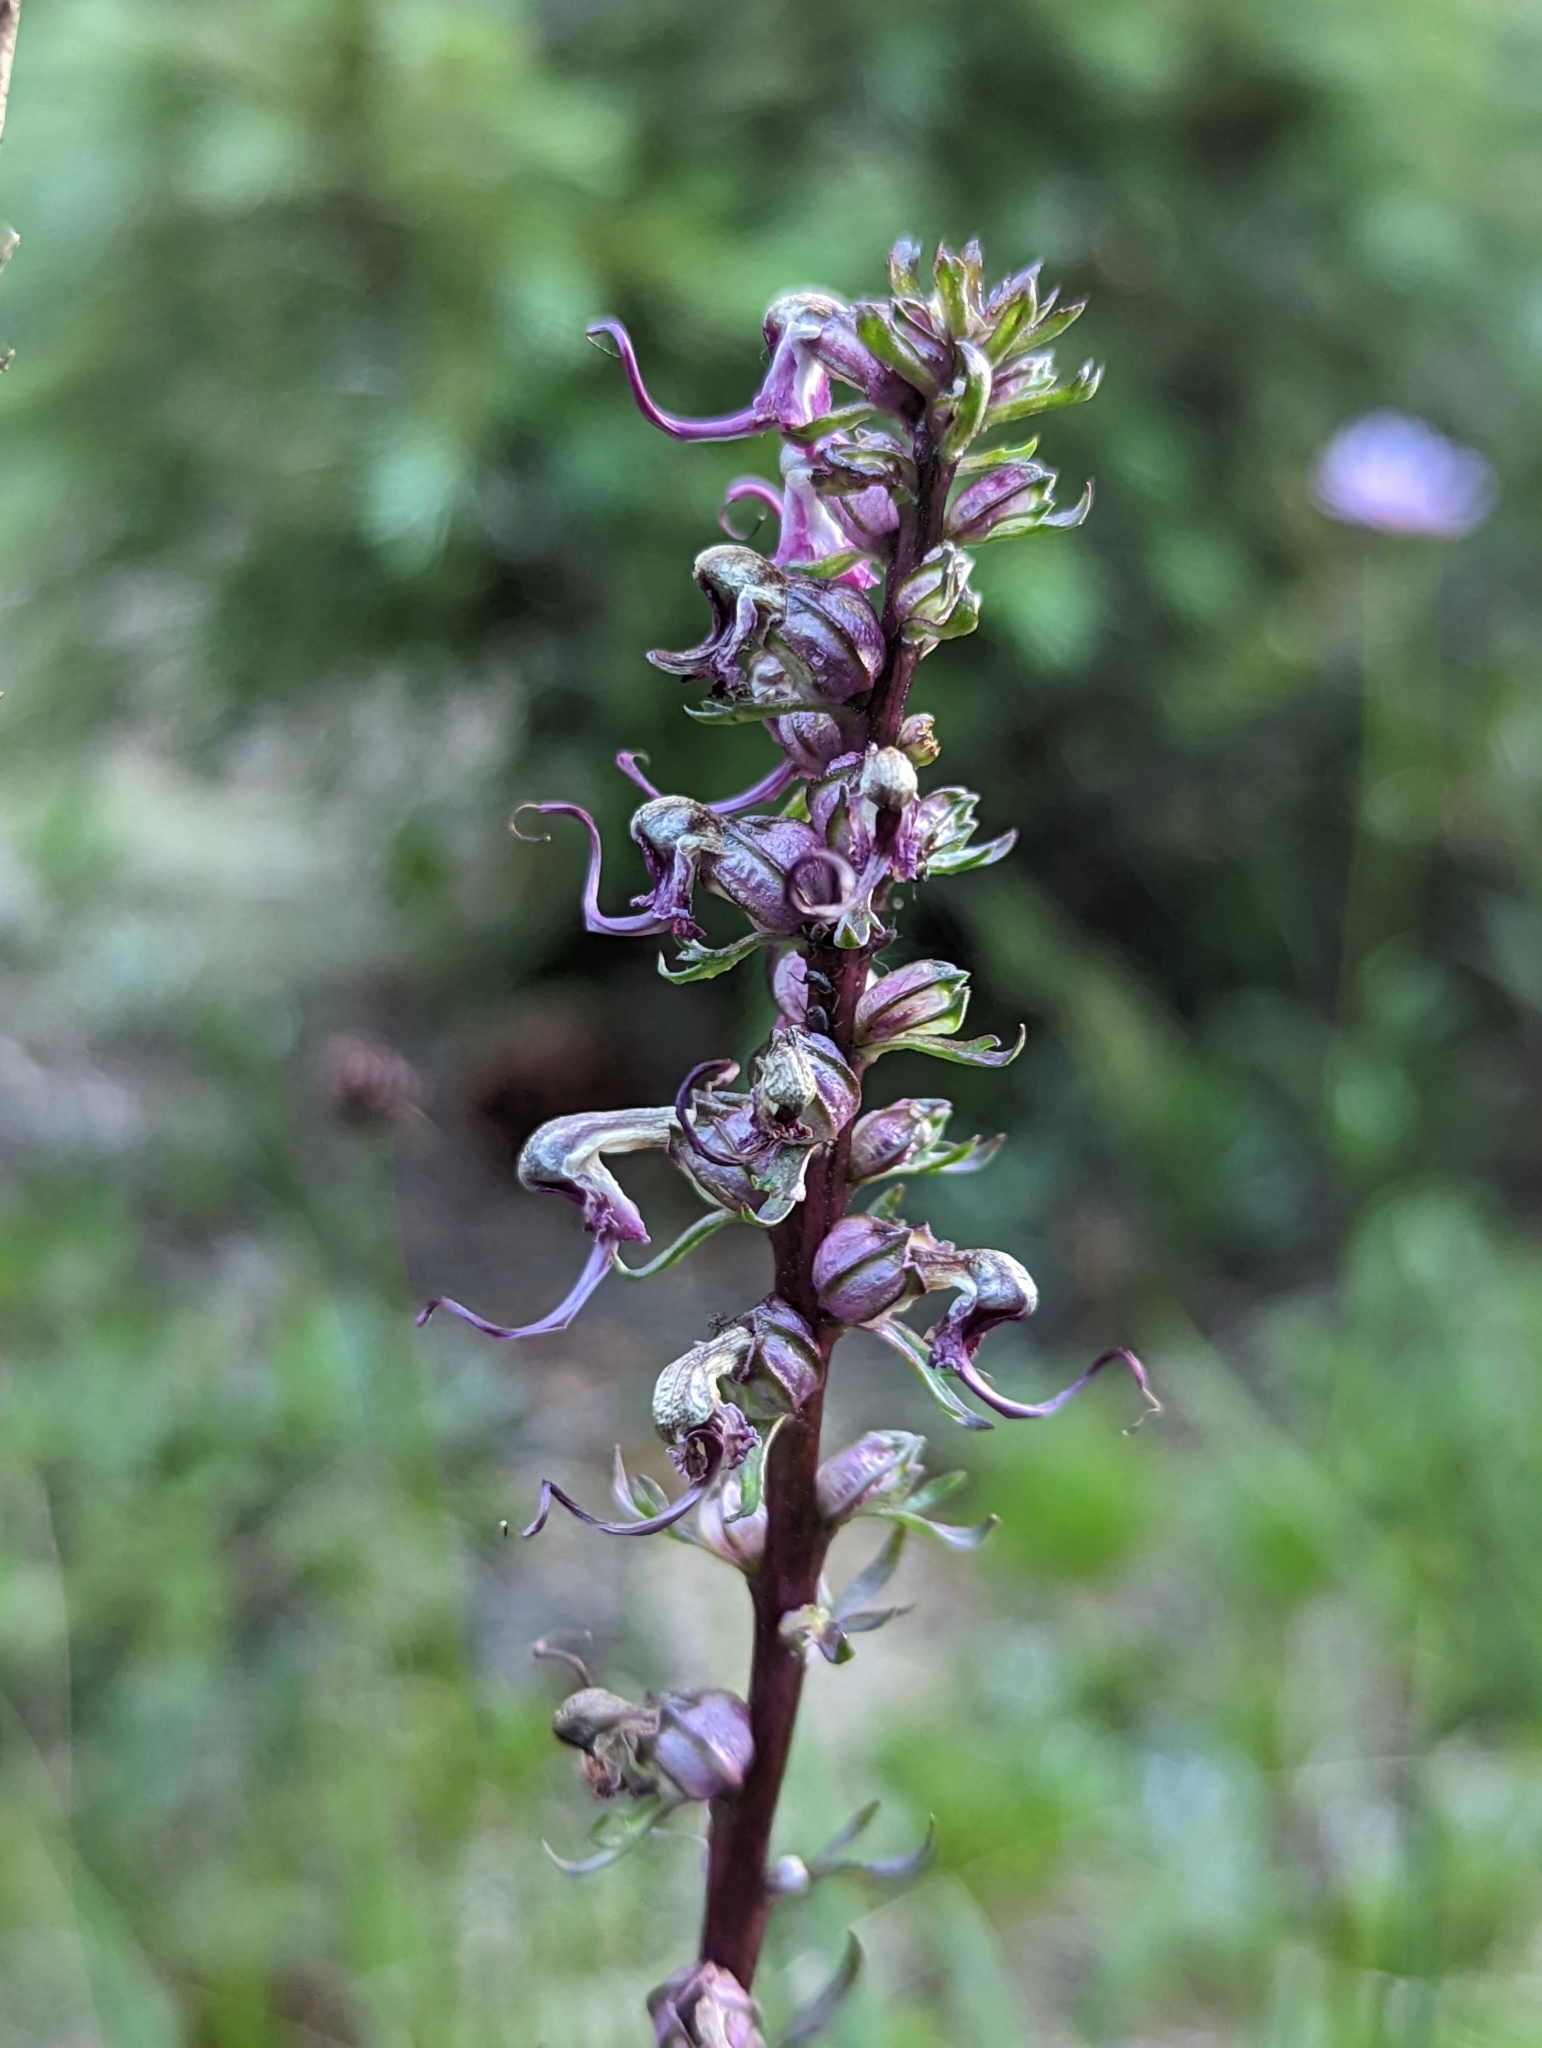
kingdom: Plantae
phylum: Tracheophyta
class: Magnoliopsida
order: Lamiales
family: Orobanchaceae
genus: Pedicularis
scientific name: Pedicularis groenlandica
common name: Elephant's-head
